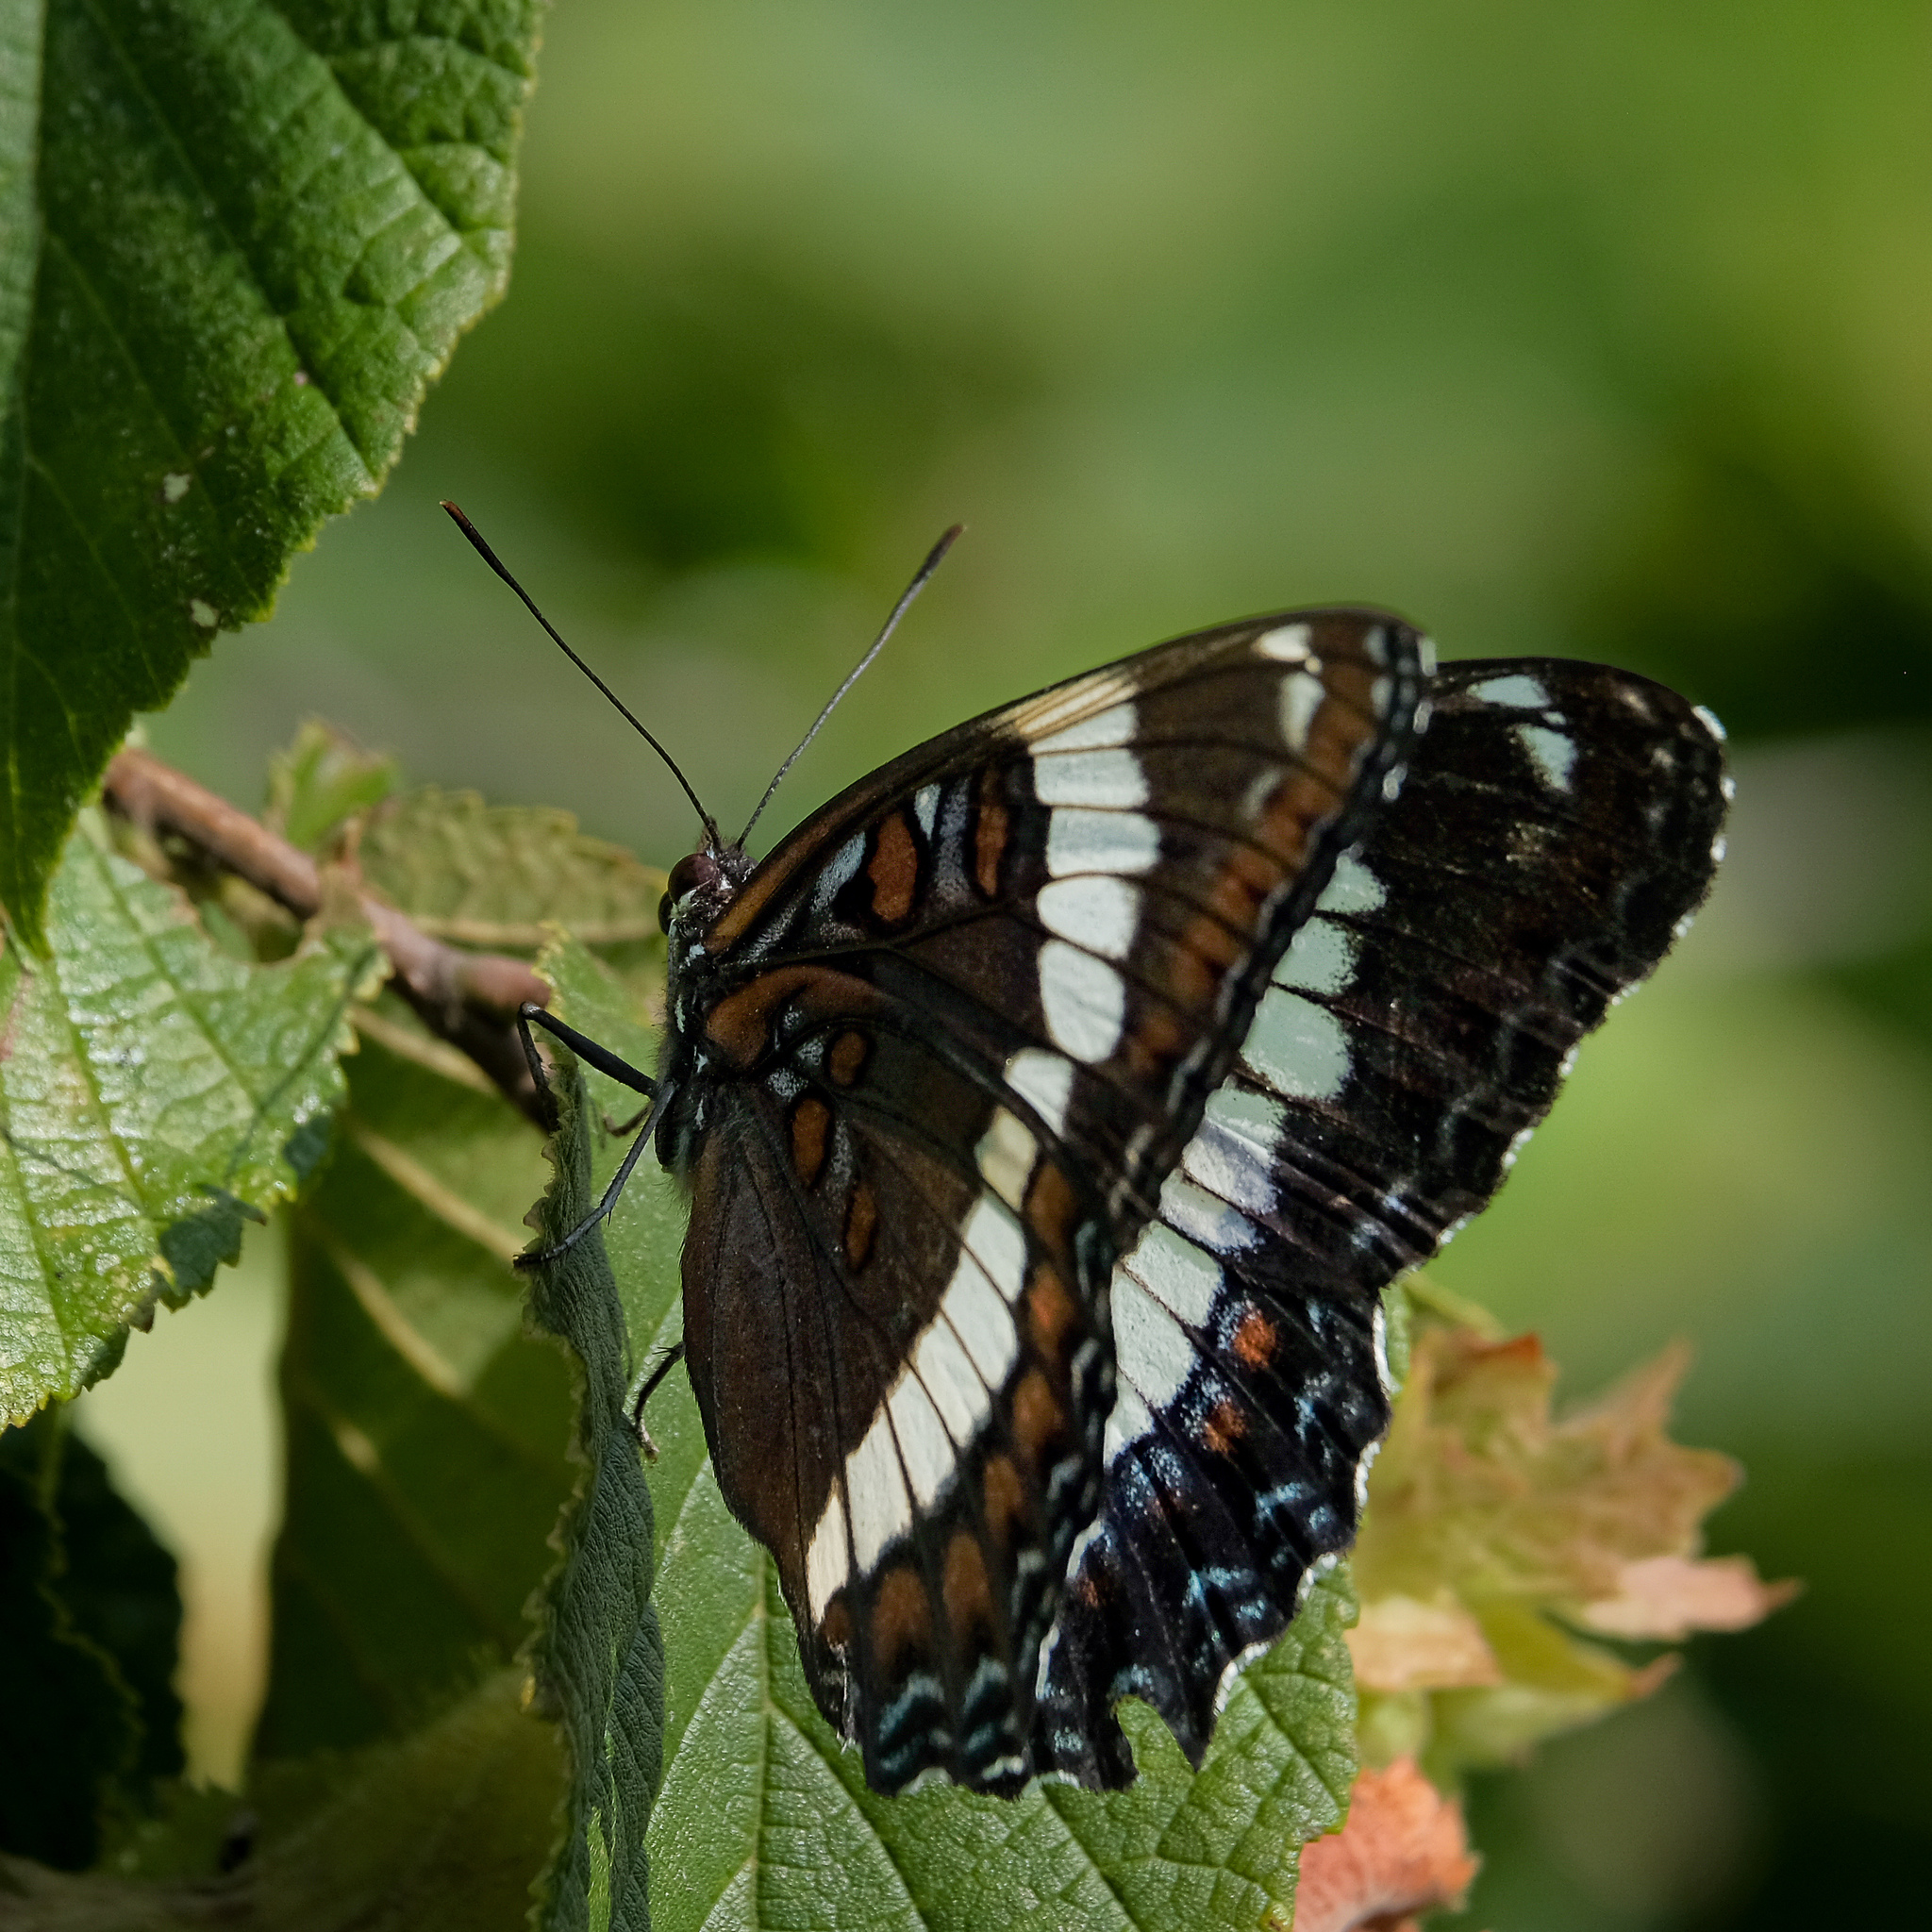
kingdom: Animalia
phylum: Arthropoda
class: Insecta
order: Lepidoptera
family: Nymphalidae
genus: Limenitis
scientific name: Limenitis arthemis
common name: Red-spotted admiral
